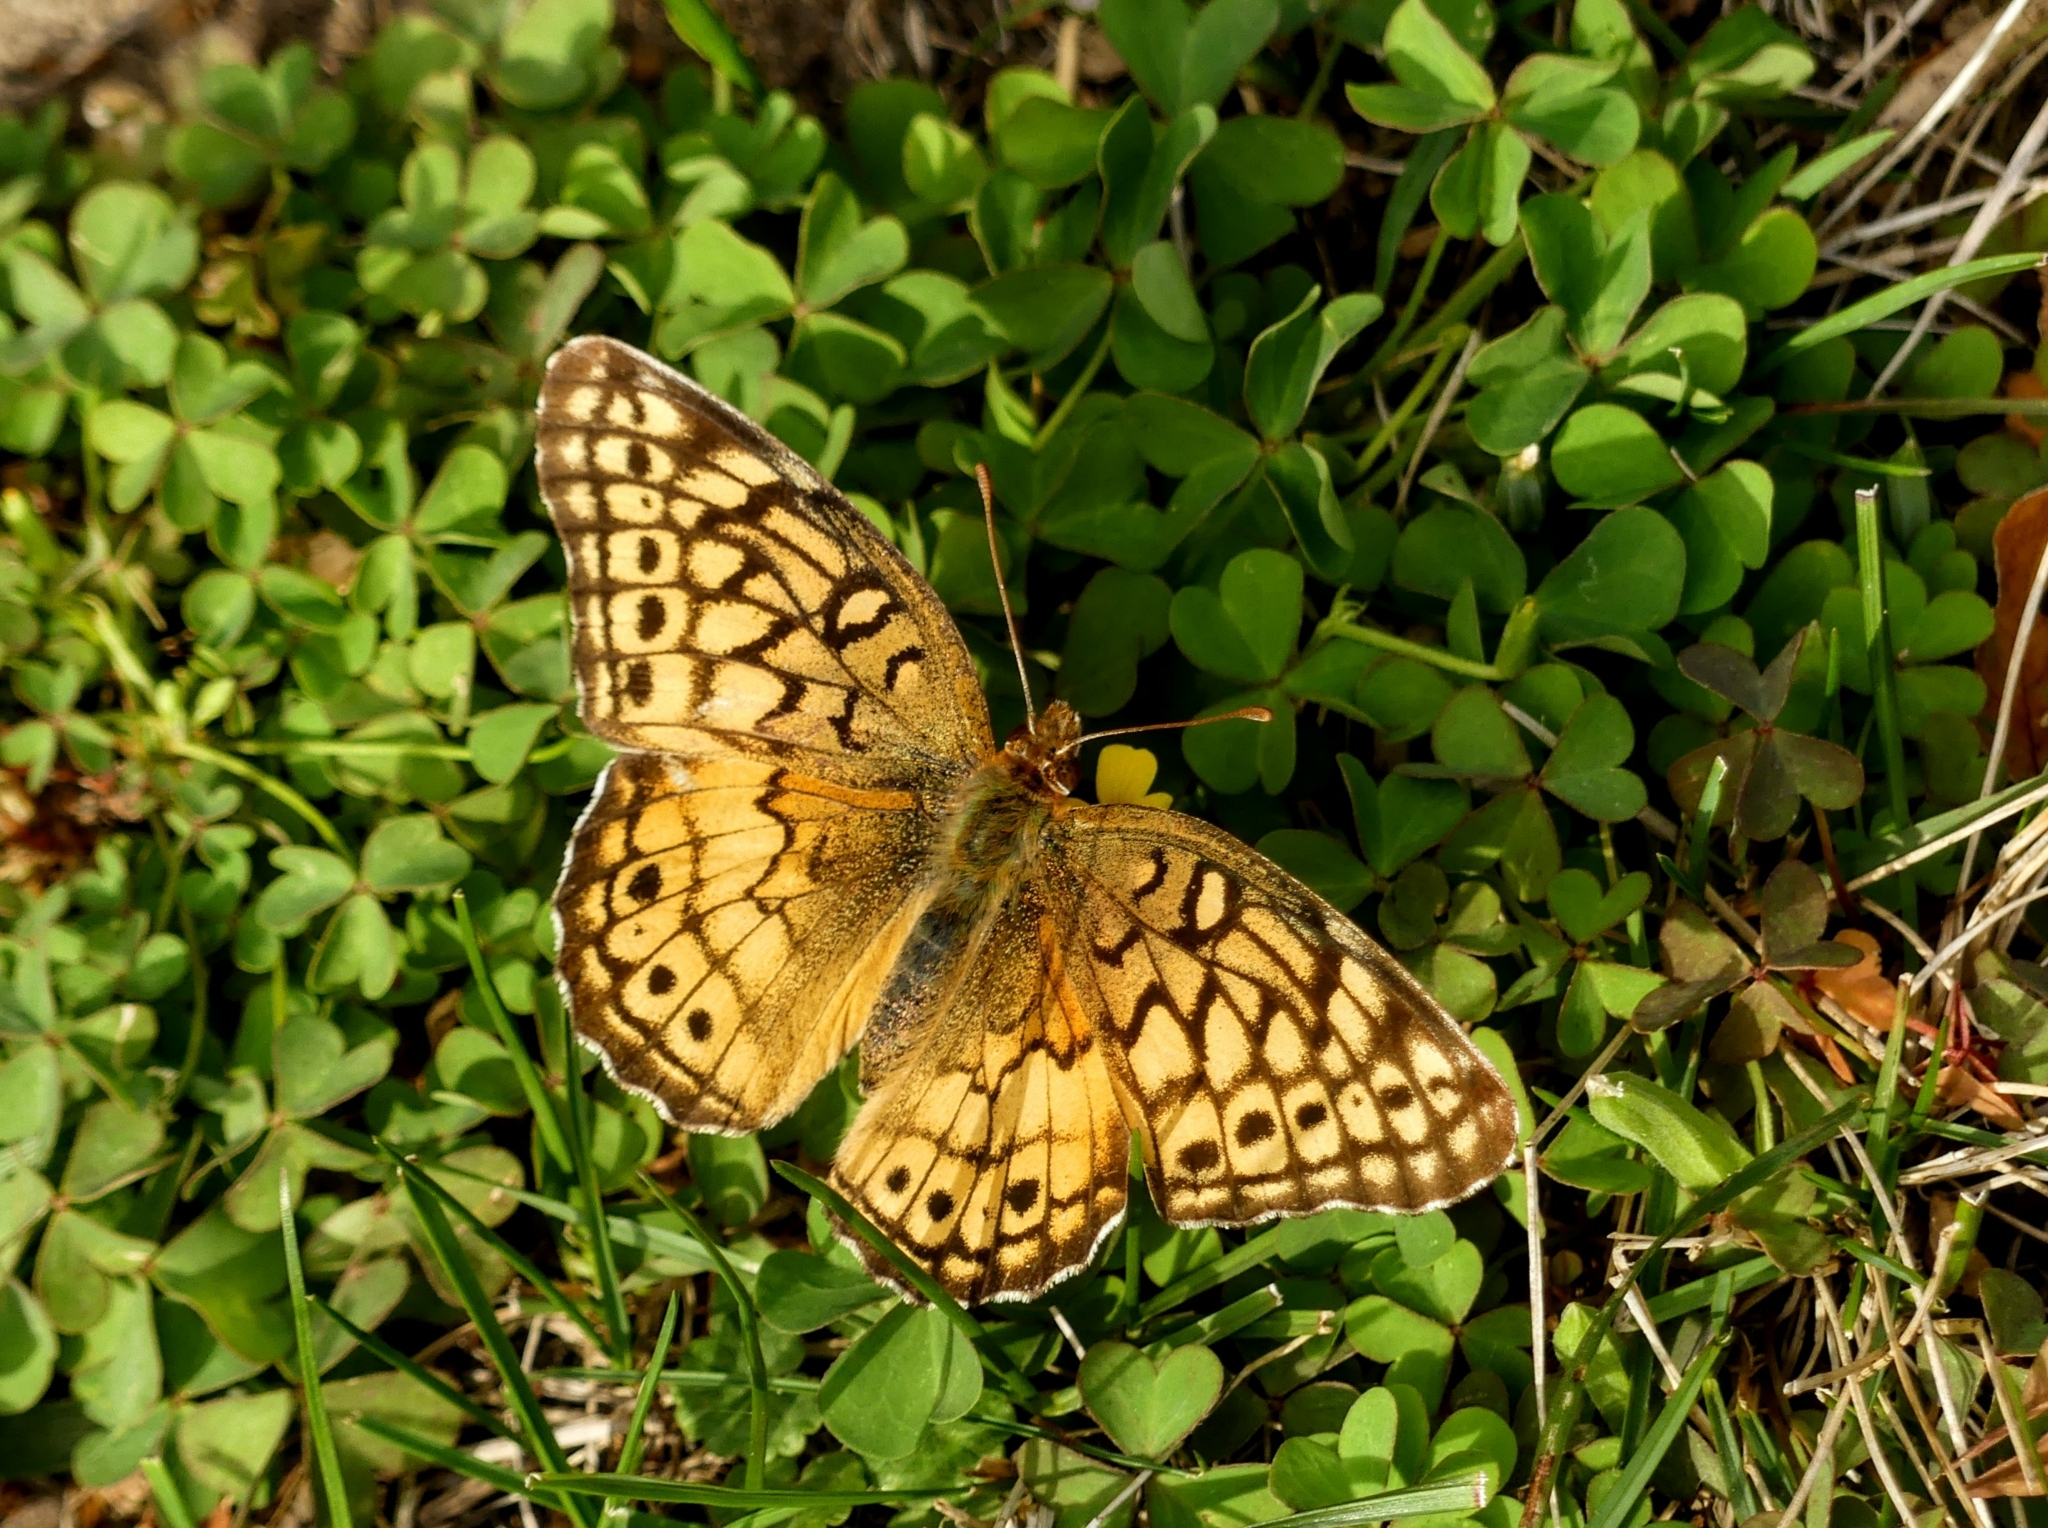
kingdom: Animalia
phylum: Arthropoda
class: Insecta
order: Lepidoptera
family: Nymphalidae
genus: Euptoieta
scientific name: Euptoieta claudia
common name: Variegated fritillary
